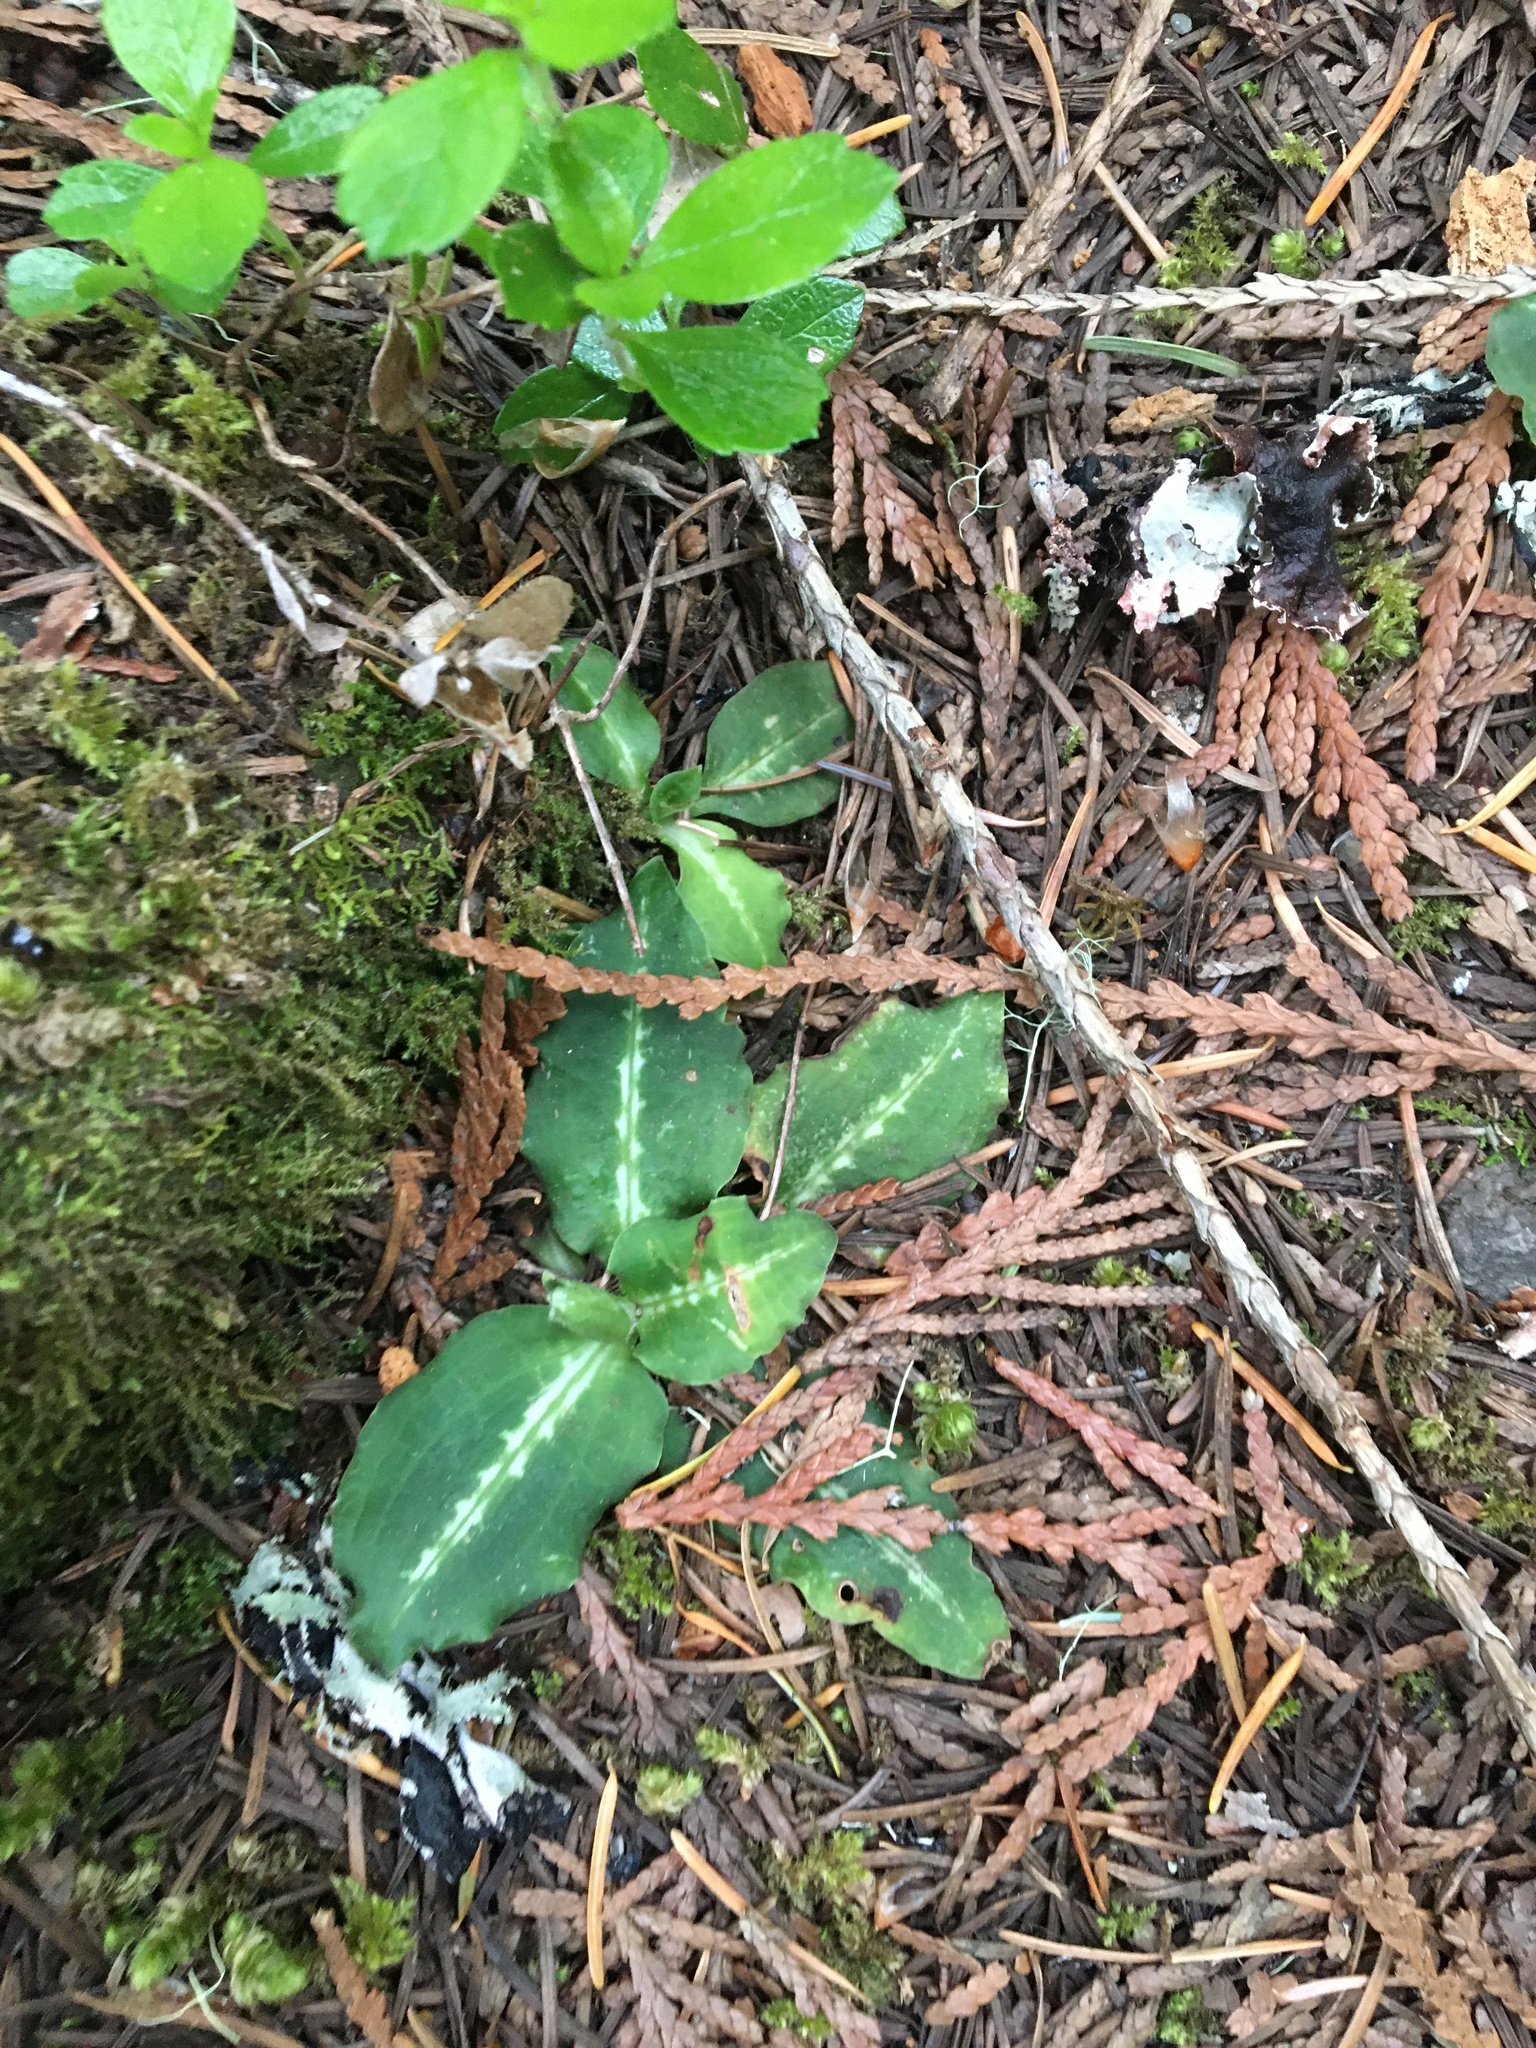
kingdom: Plantae
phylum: Tracheophyta
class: Liliopsida
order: Asparagales
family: Orchidaceae
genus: Goodyera
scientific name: Goodyera oblongifolia
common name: Giant rattlesnake-plantain
